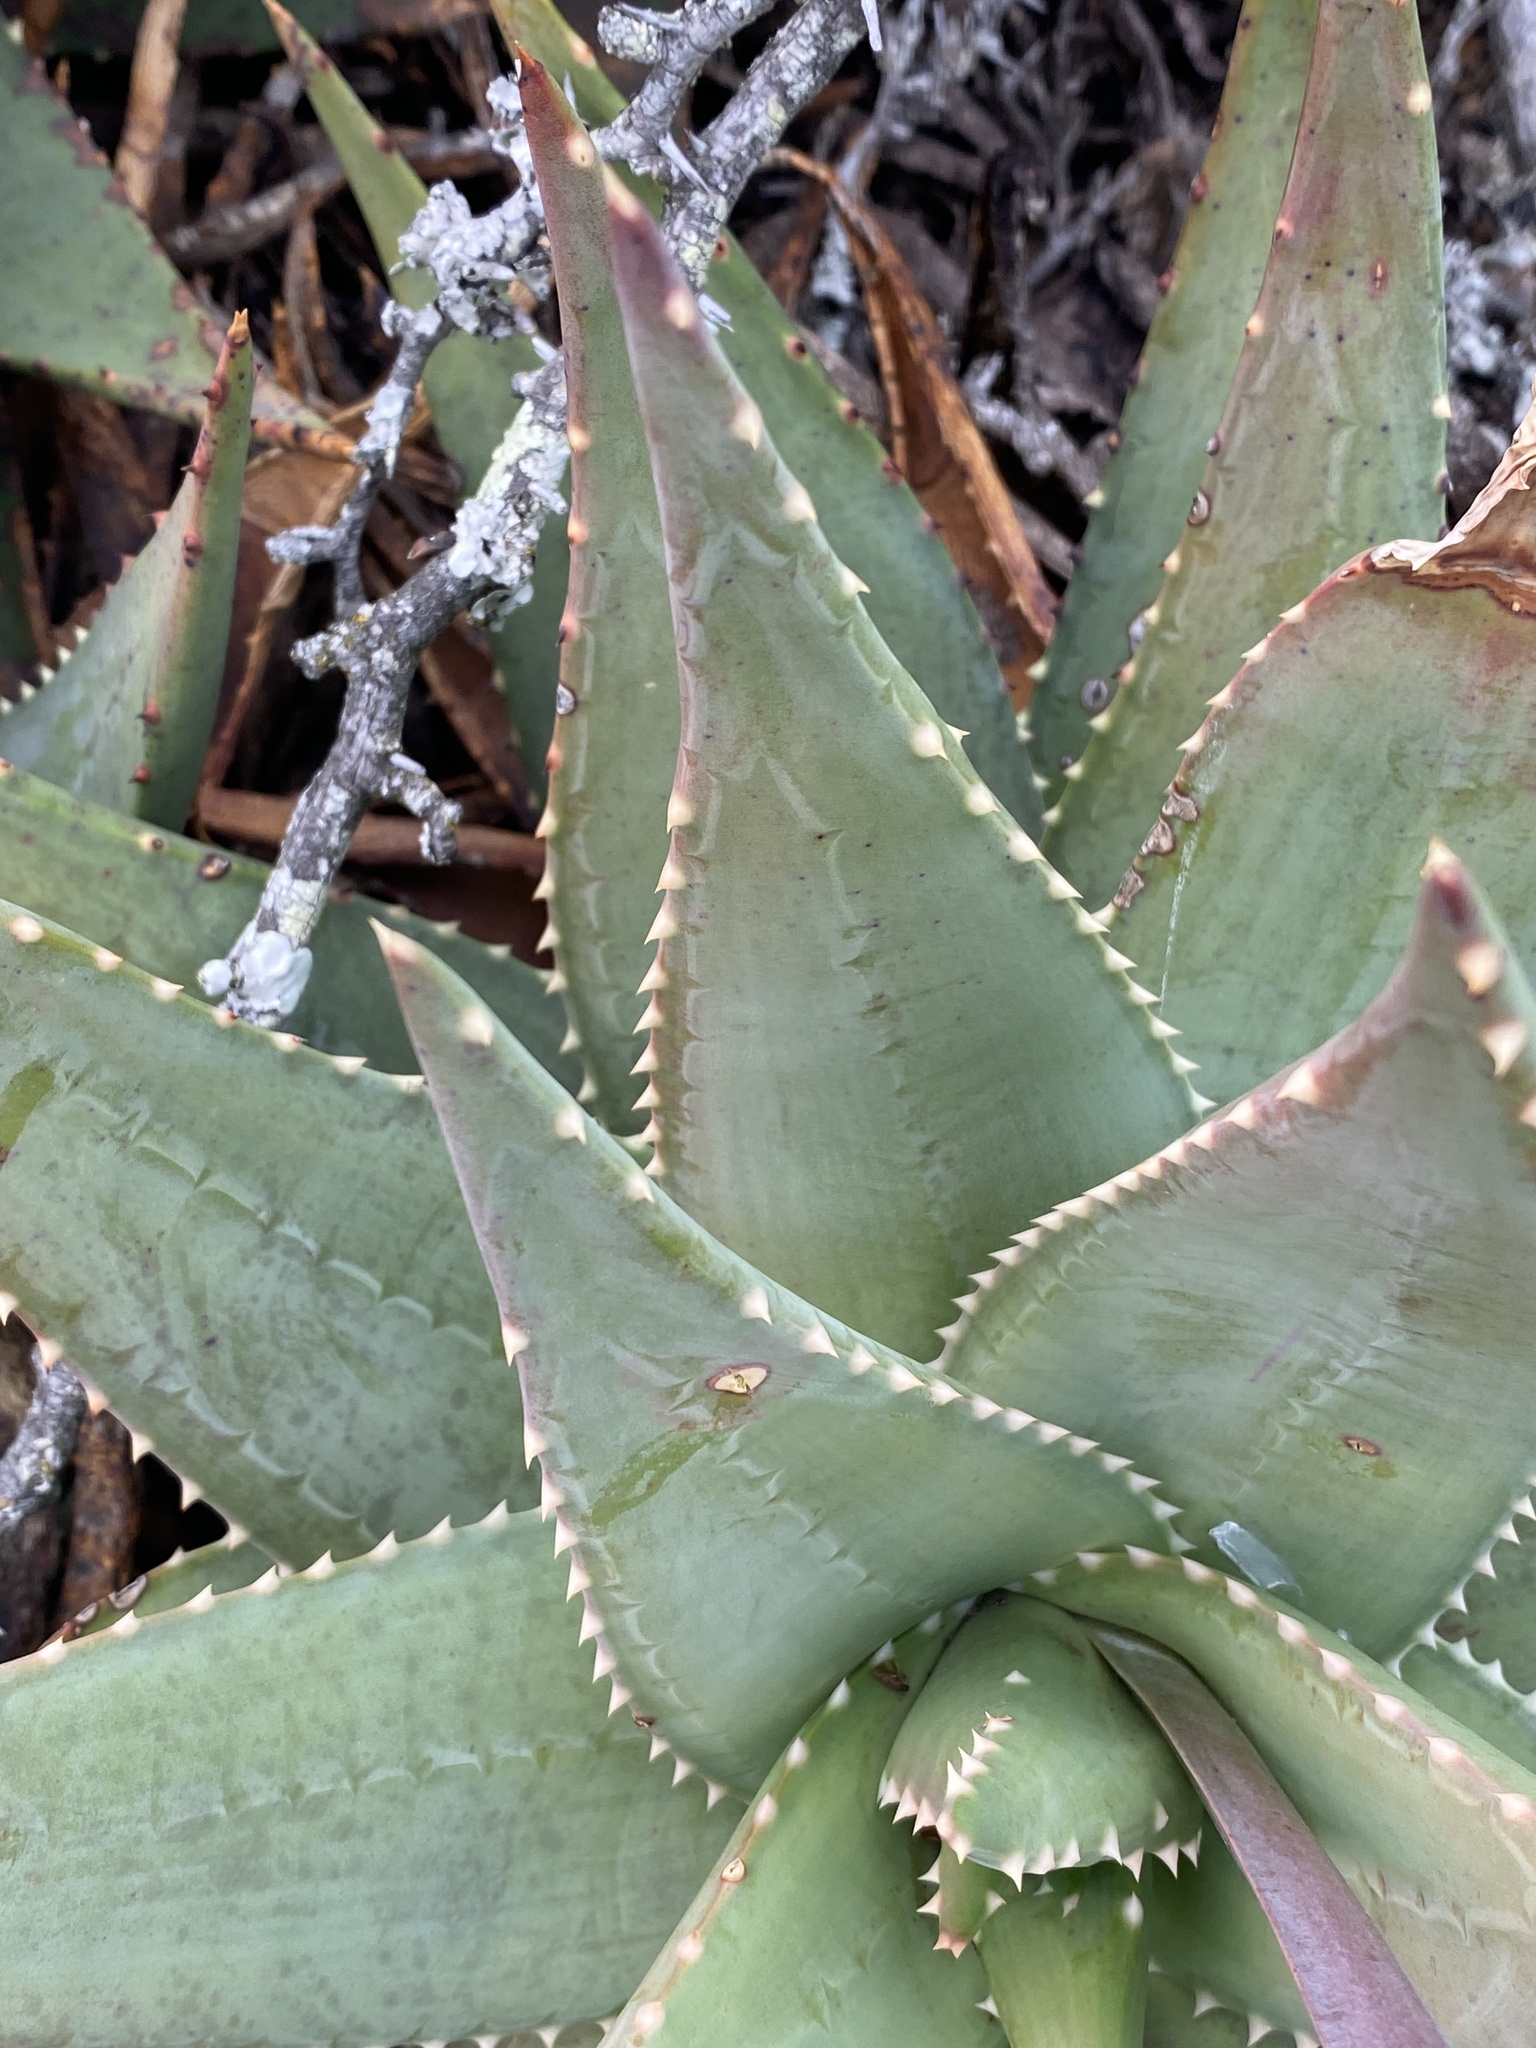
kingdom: Plantae
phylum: Tracheophyta
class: Liliopsida
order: Asparagales
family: Asphodelaceae
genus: Aloe
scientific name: Aloe comptonii
